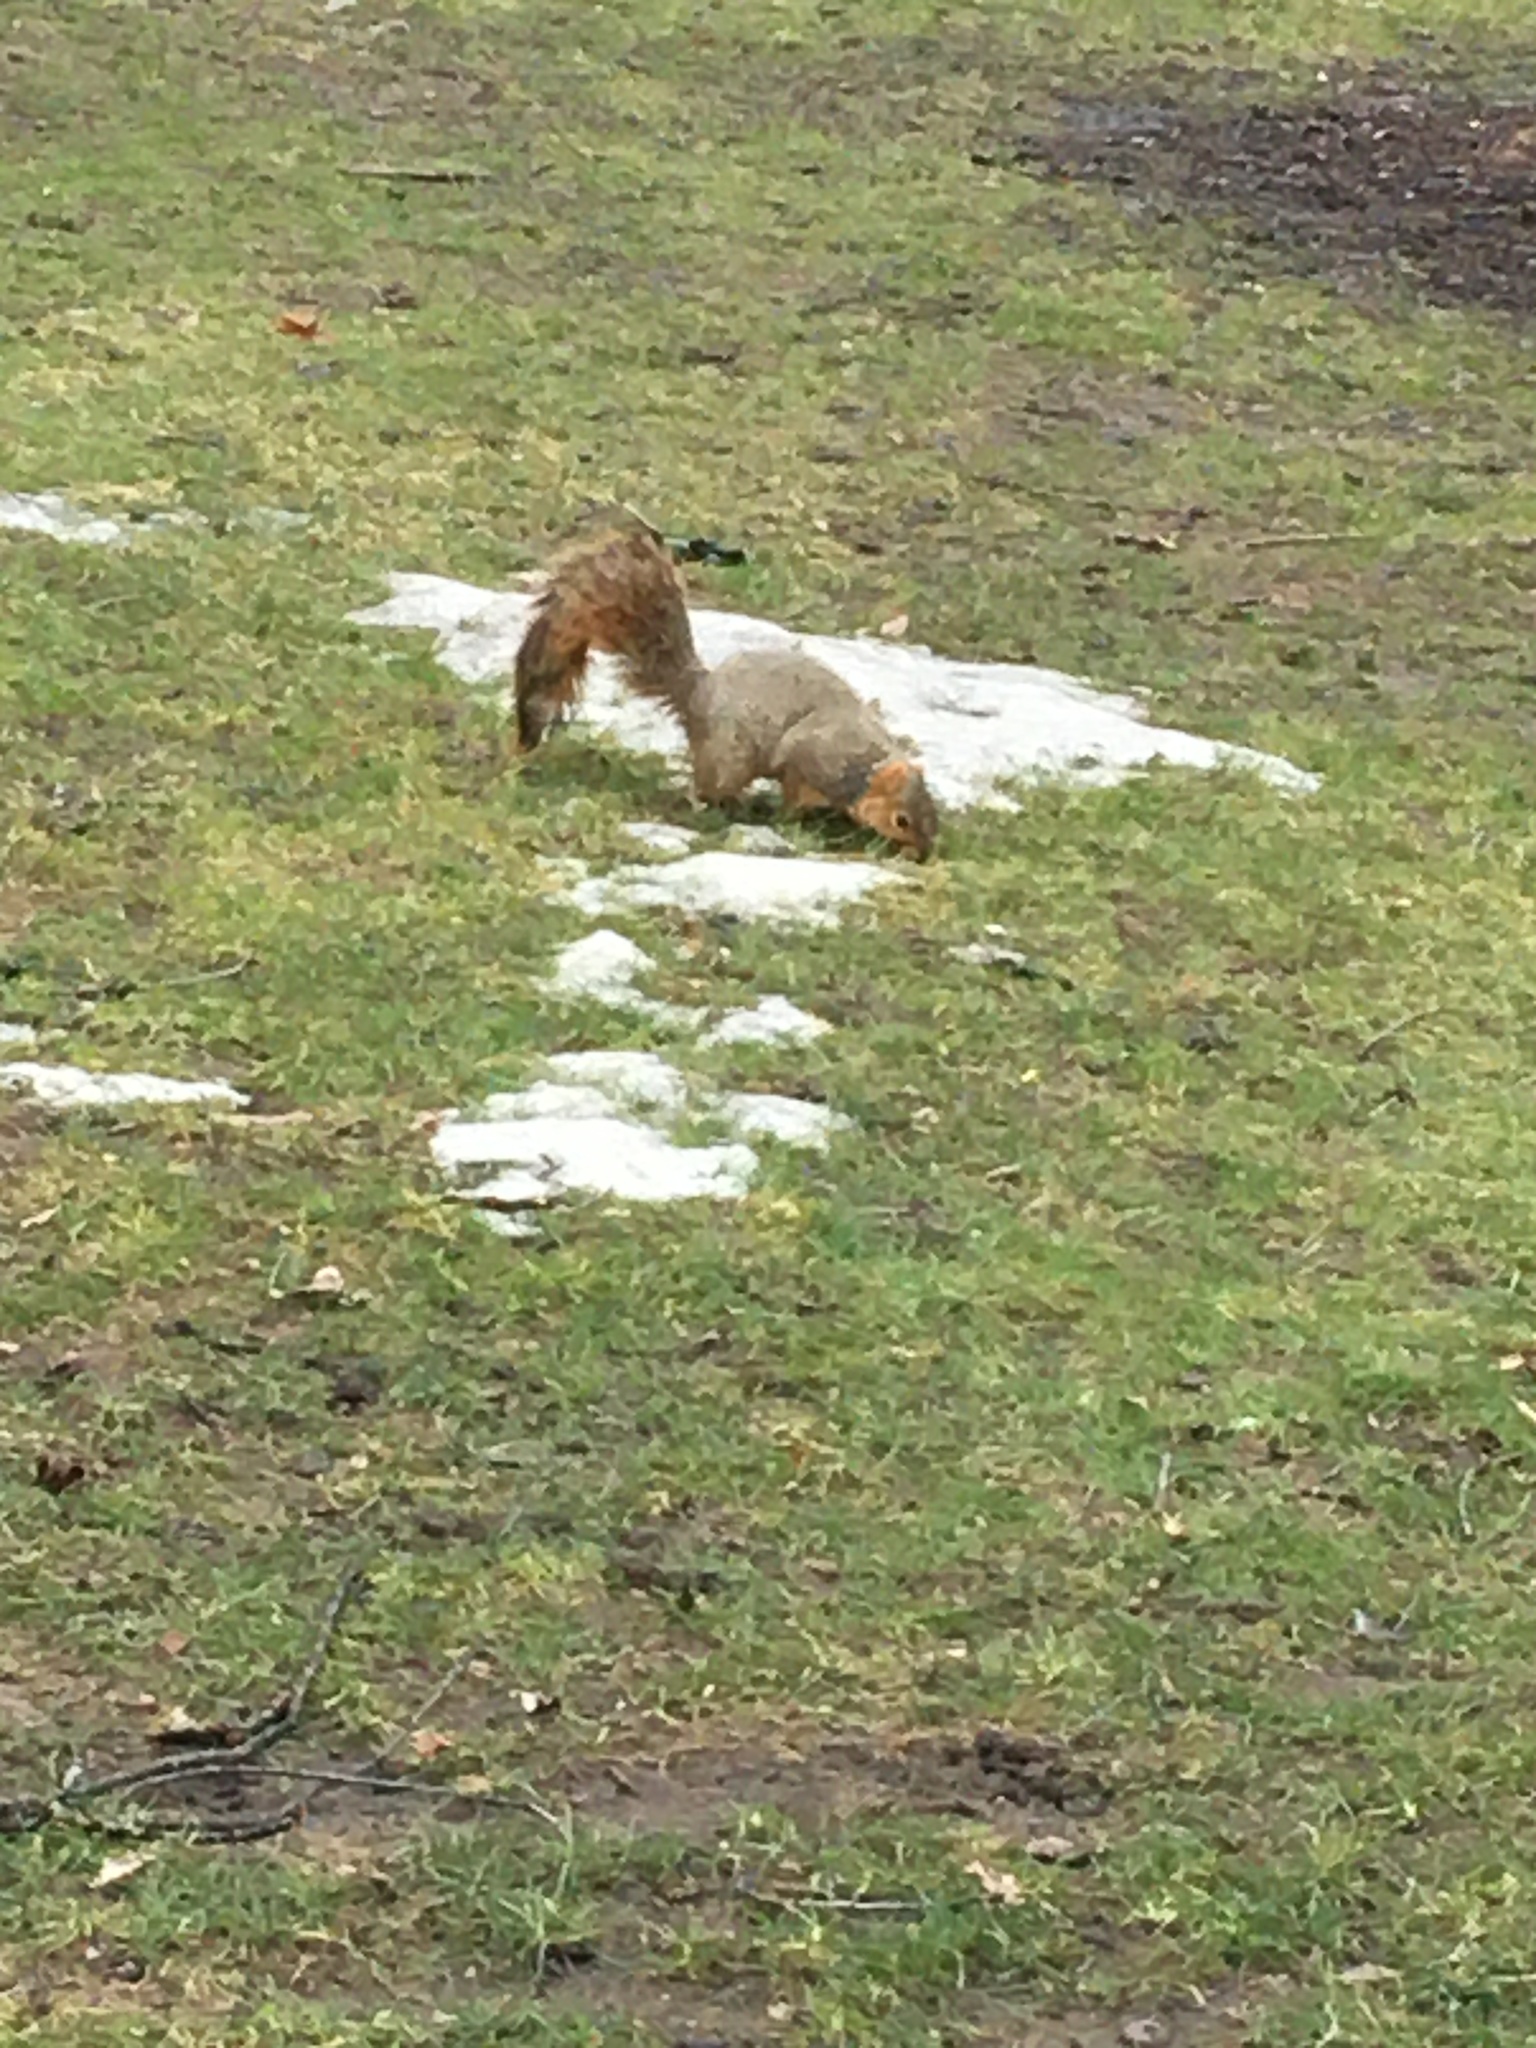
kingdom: Animalia
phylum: Chordata
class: Mammalia
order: Rodentia
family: Sciuridae
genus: Sciurus
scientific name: Sciurus niger
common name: Fox squirrel
